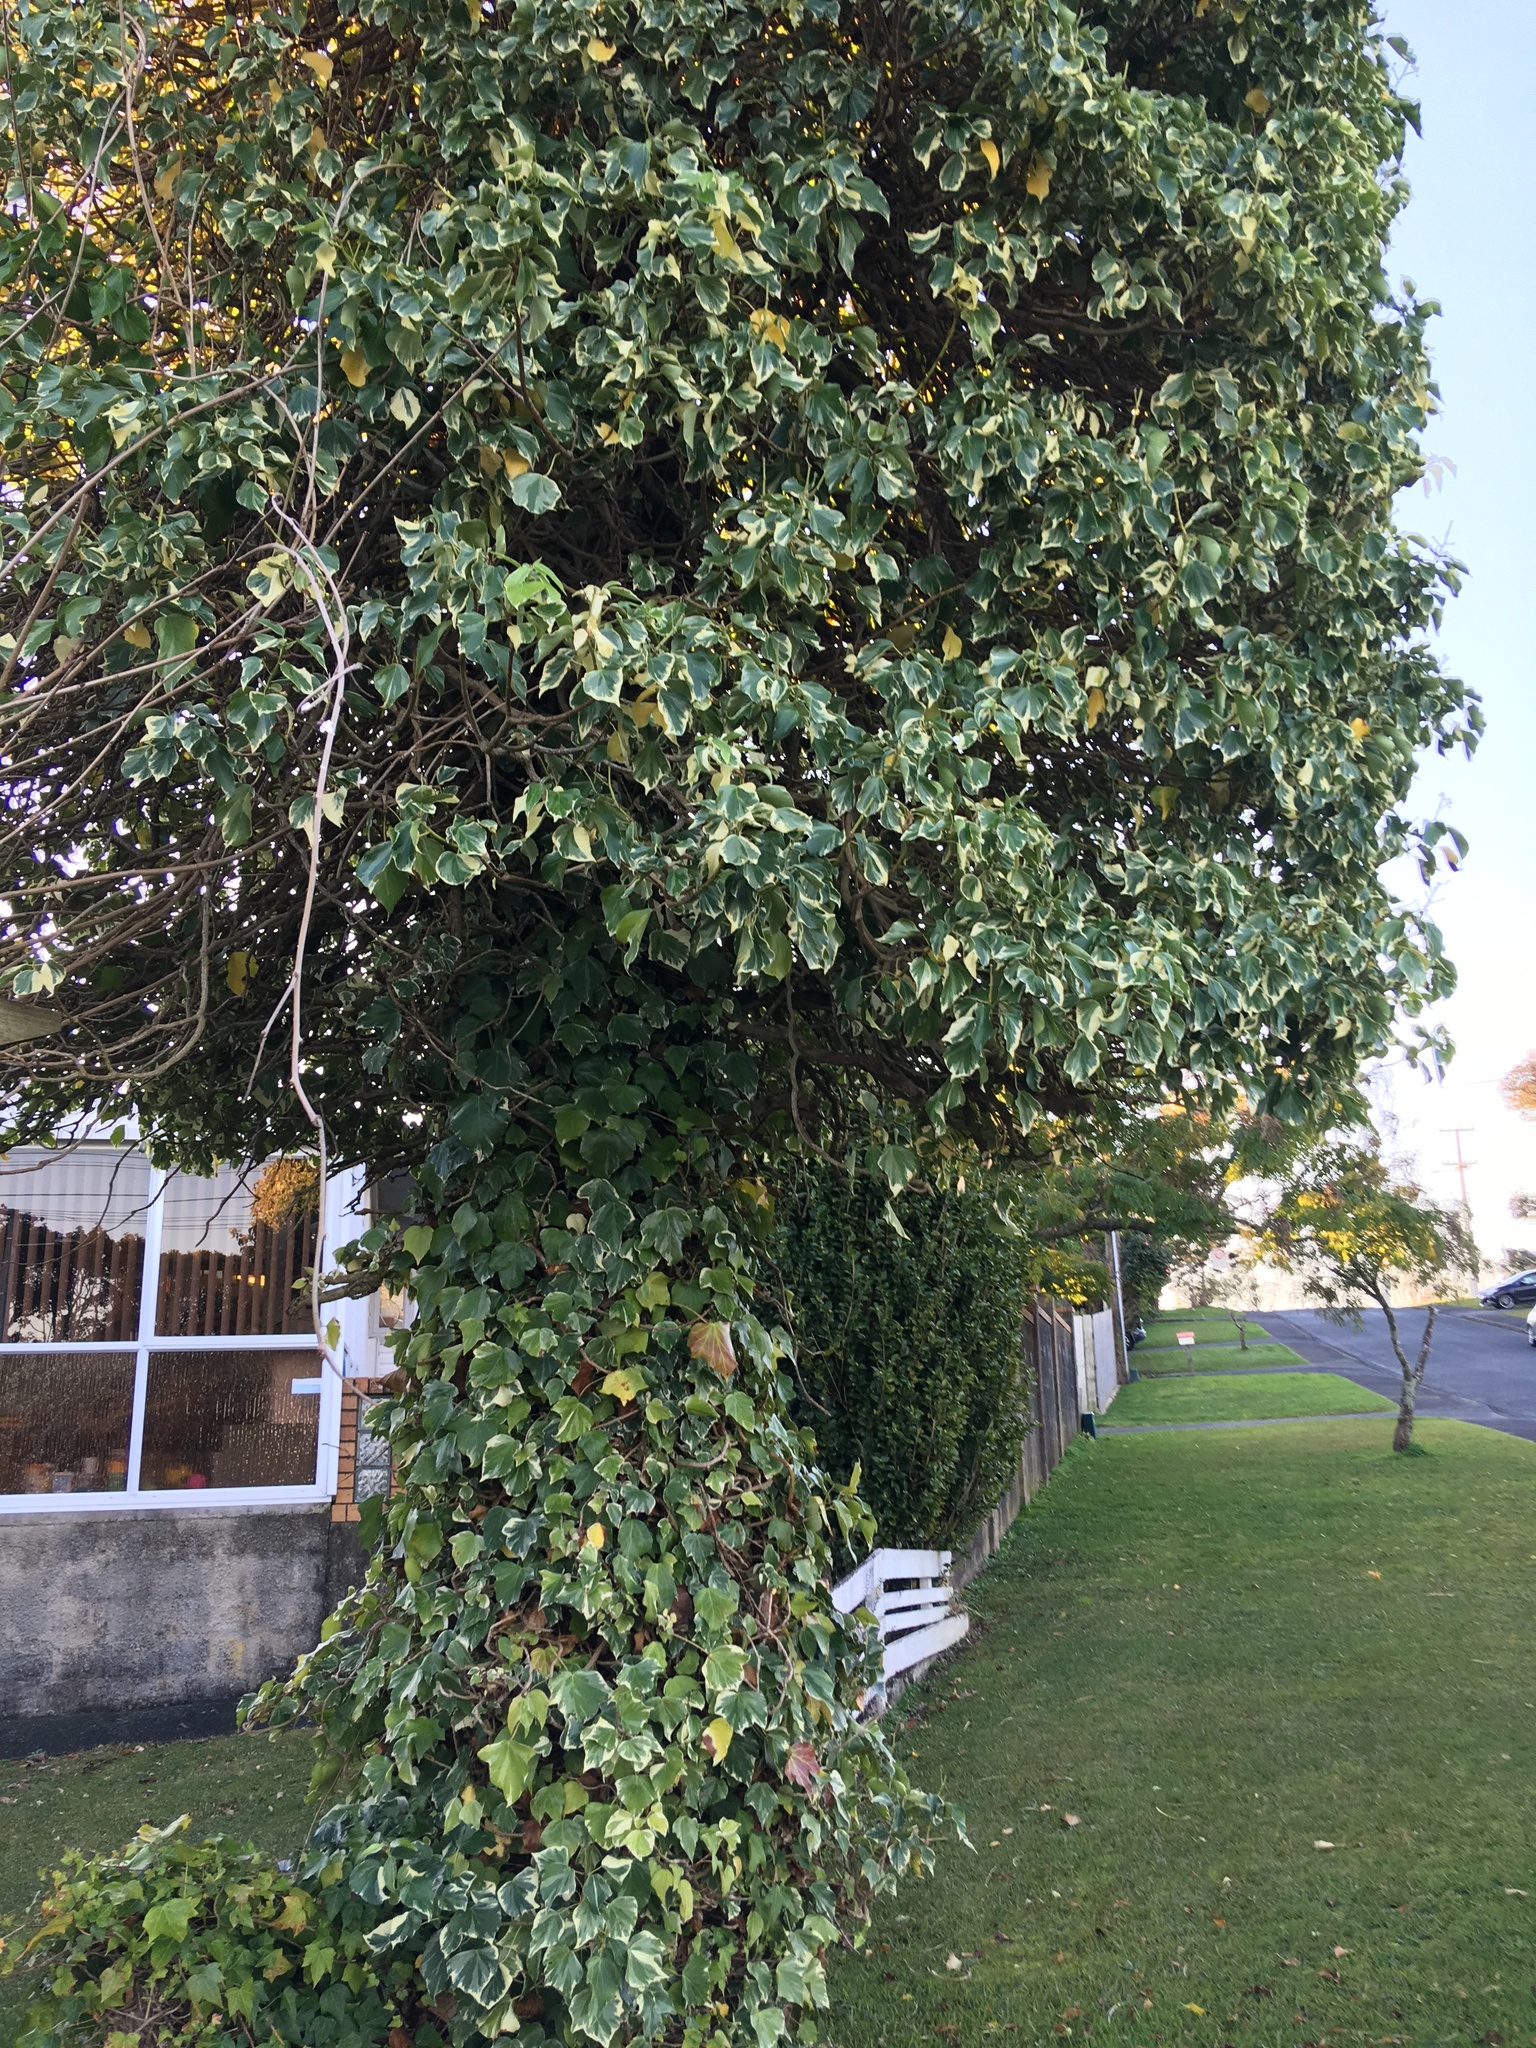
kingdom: Plantae
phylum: Tracheophyta
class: Magnoliopsida
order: Apiales
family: Araliaceae
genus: Hedera
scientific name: Hedera helix
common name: Ivy
